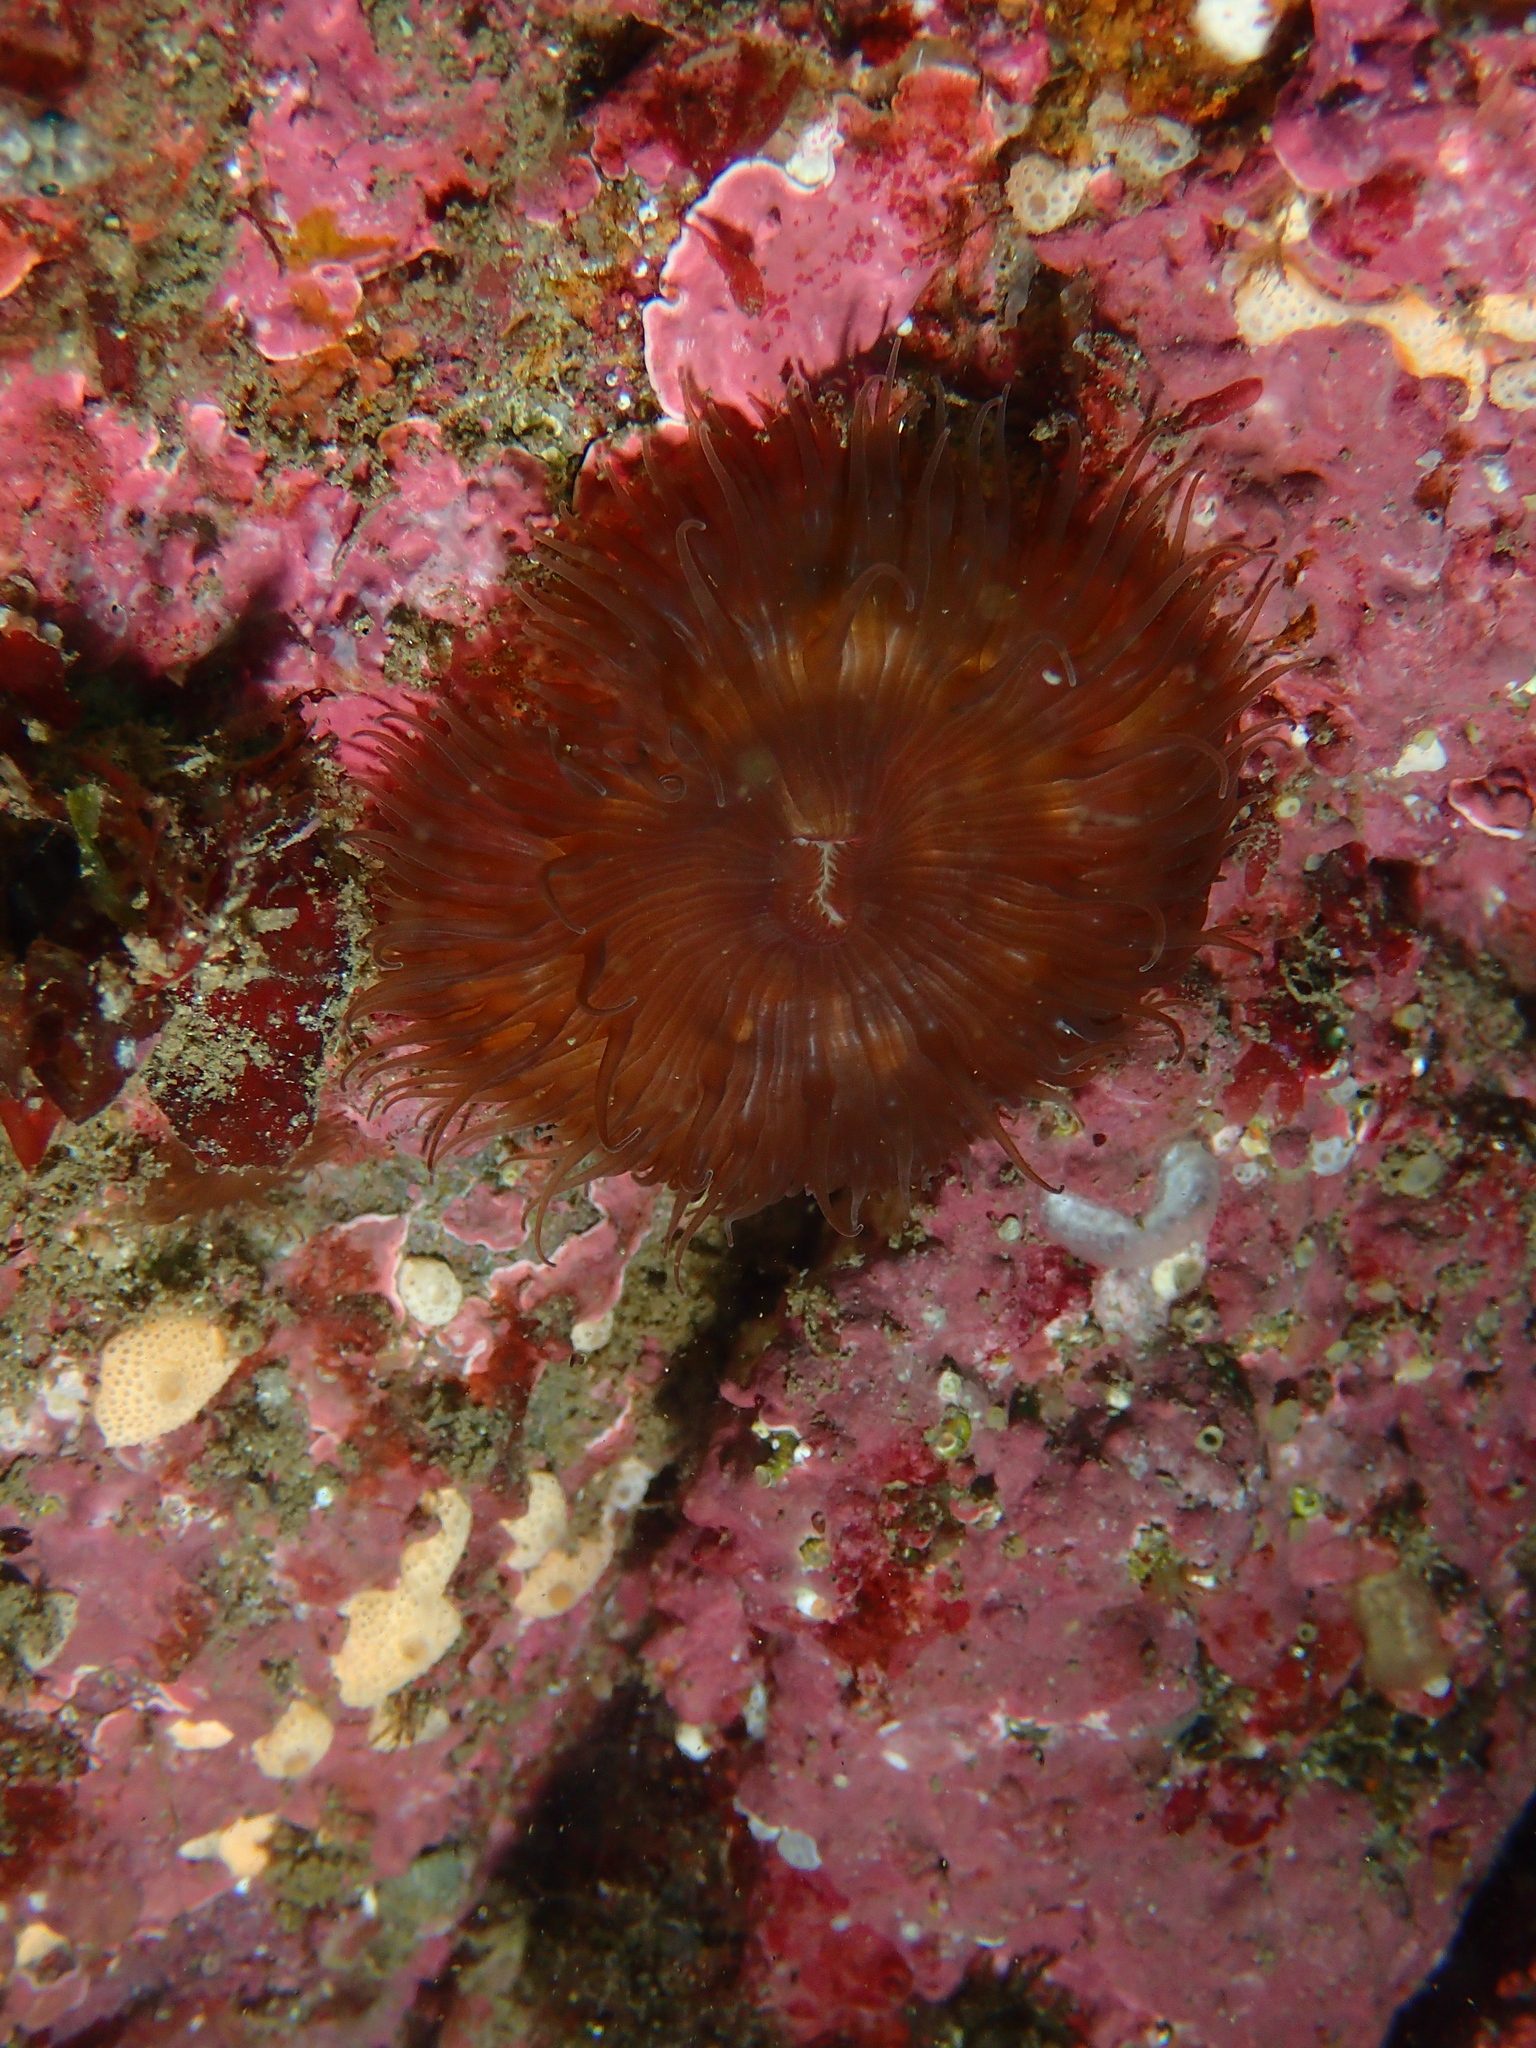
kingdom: Animalia
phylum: Cnidaria
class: Anthozoa
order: Actiniaria
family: Sagartiidae
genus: Cereus
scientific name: Cereus pedunculatus
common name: Daisy anemone
